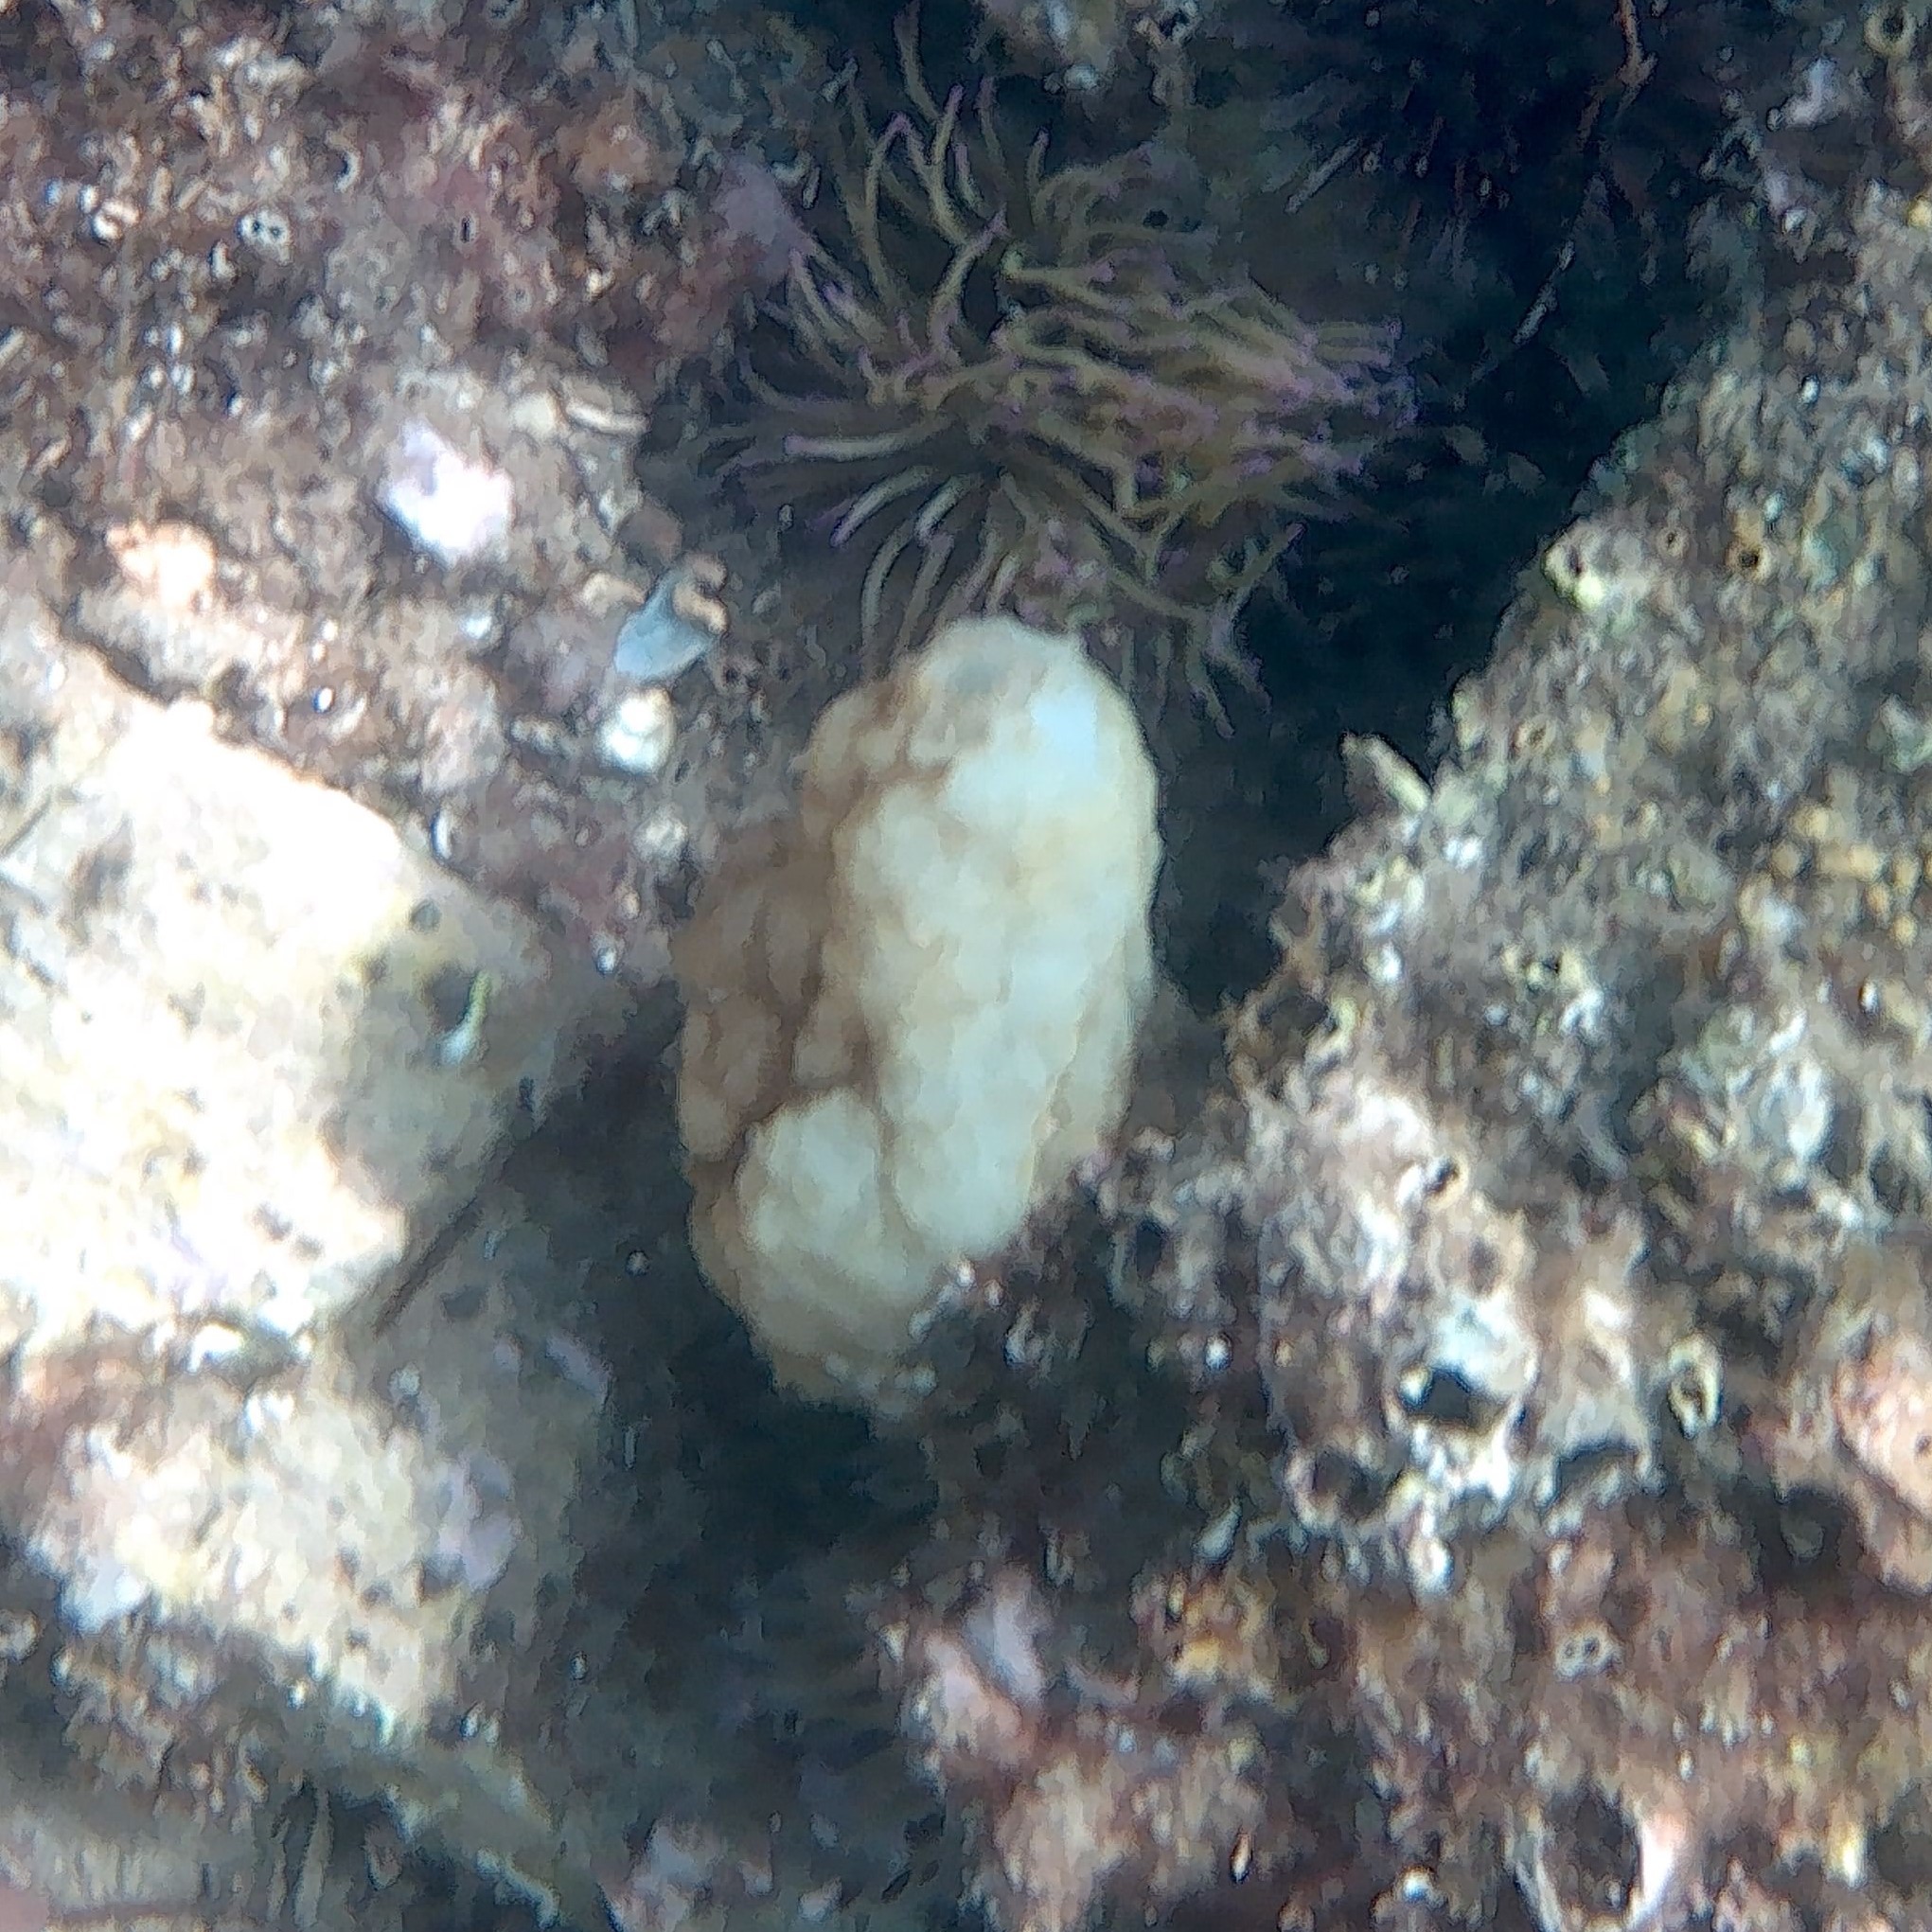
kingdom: Animalia
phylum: Chordata
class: Ascidiacea
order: Phlebobranchia
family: Ascidiidae
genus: Phallusia
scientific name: Phallusia mammillata
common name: Neptune's heart sea squirt
